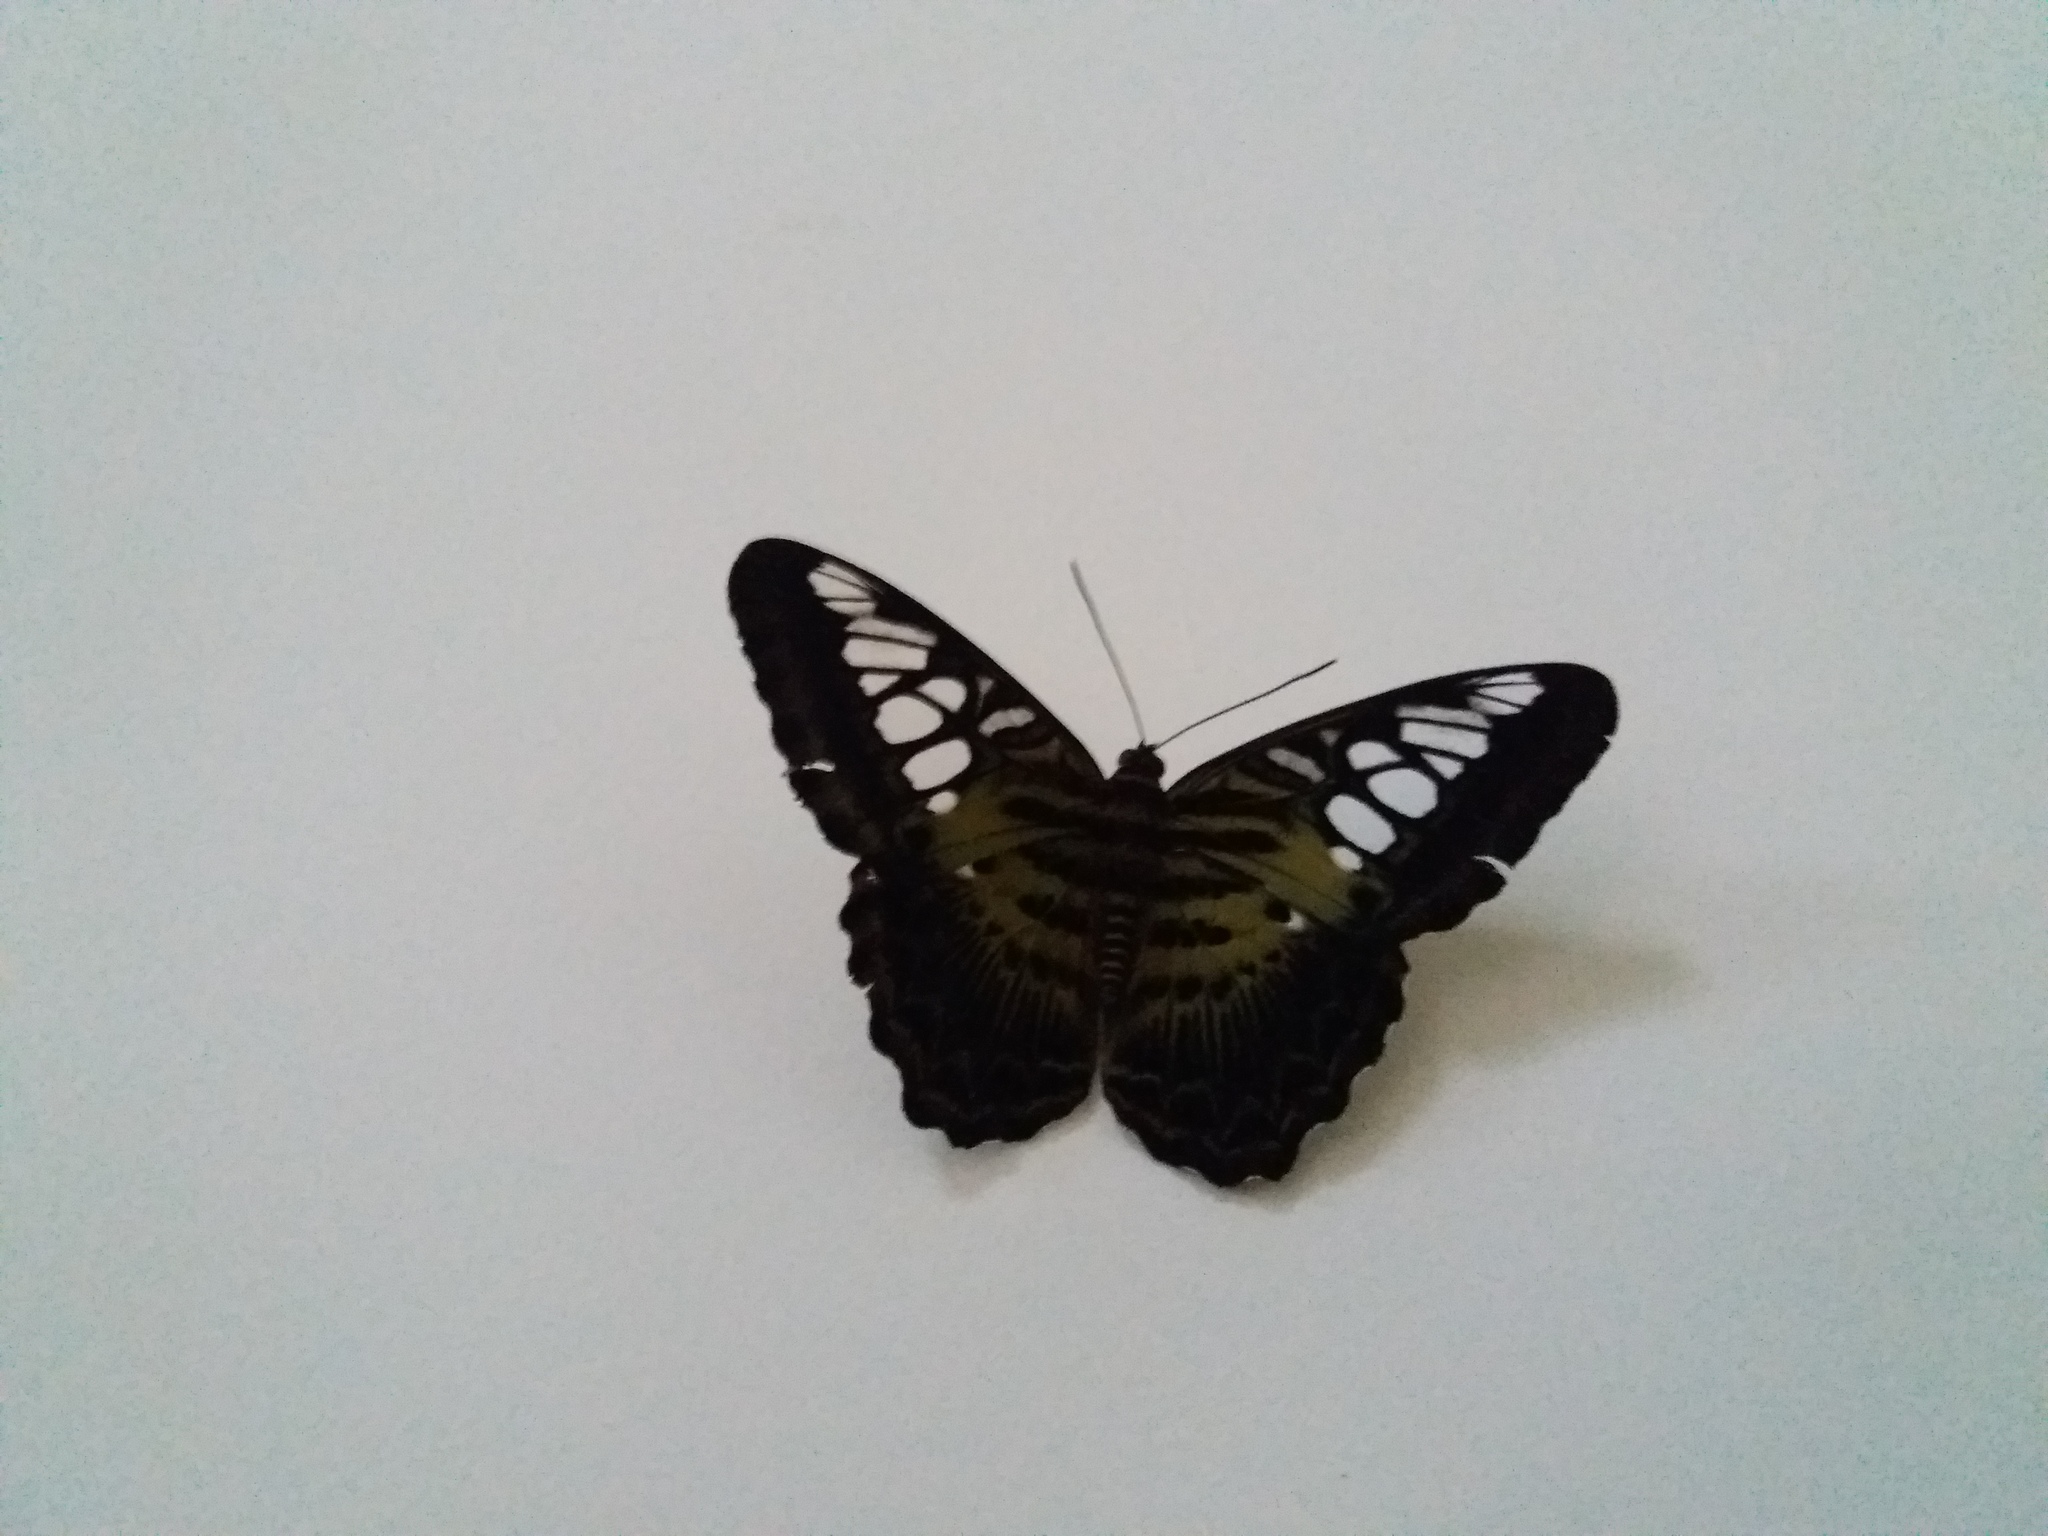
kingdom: Animalia
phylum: Arthropoda
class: Insecta
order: Lepidoptera
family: Nymphalidae
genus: Kallima
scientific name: Kallima sylvia
